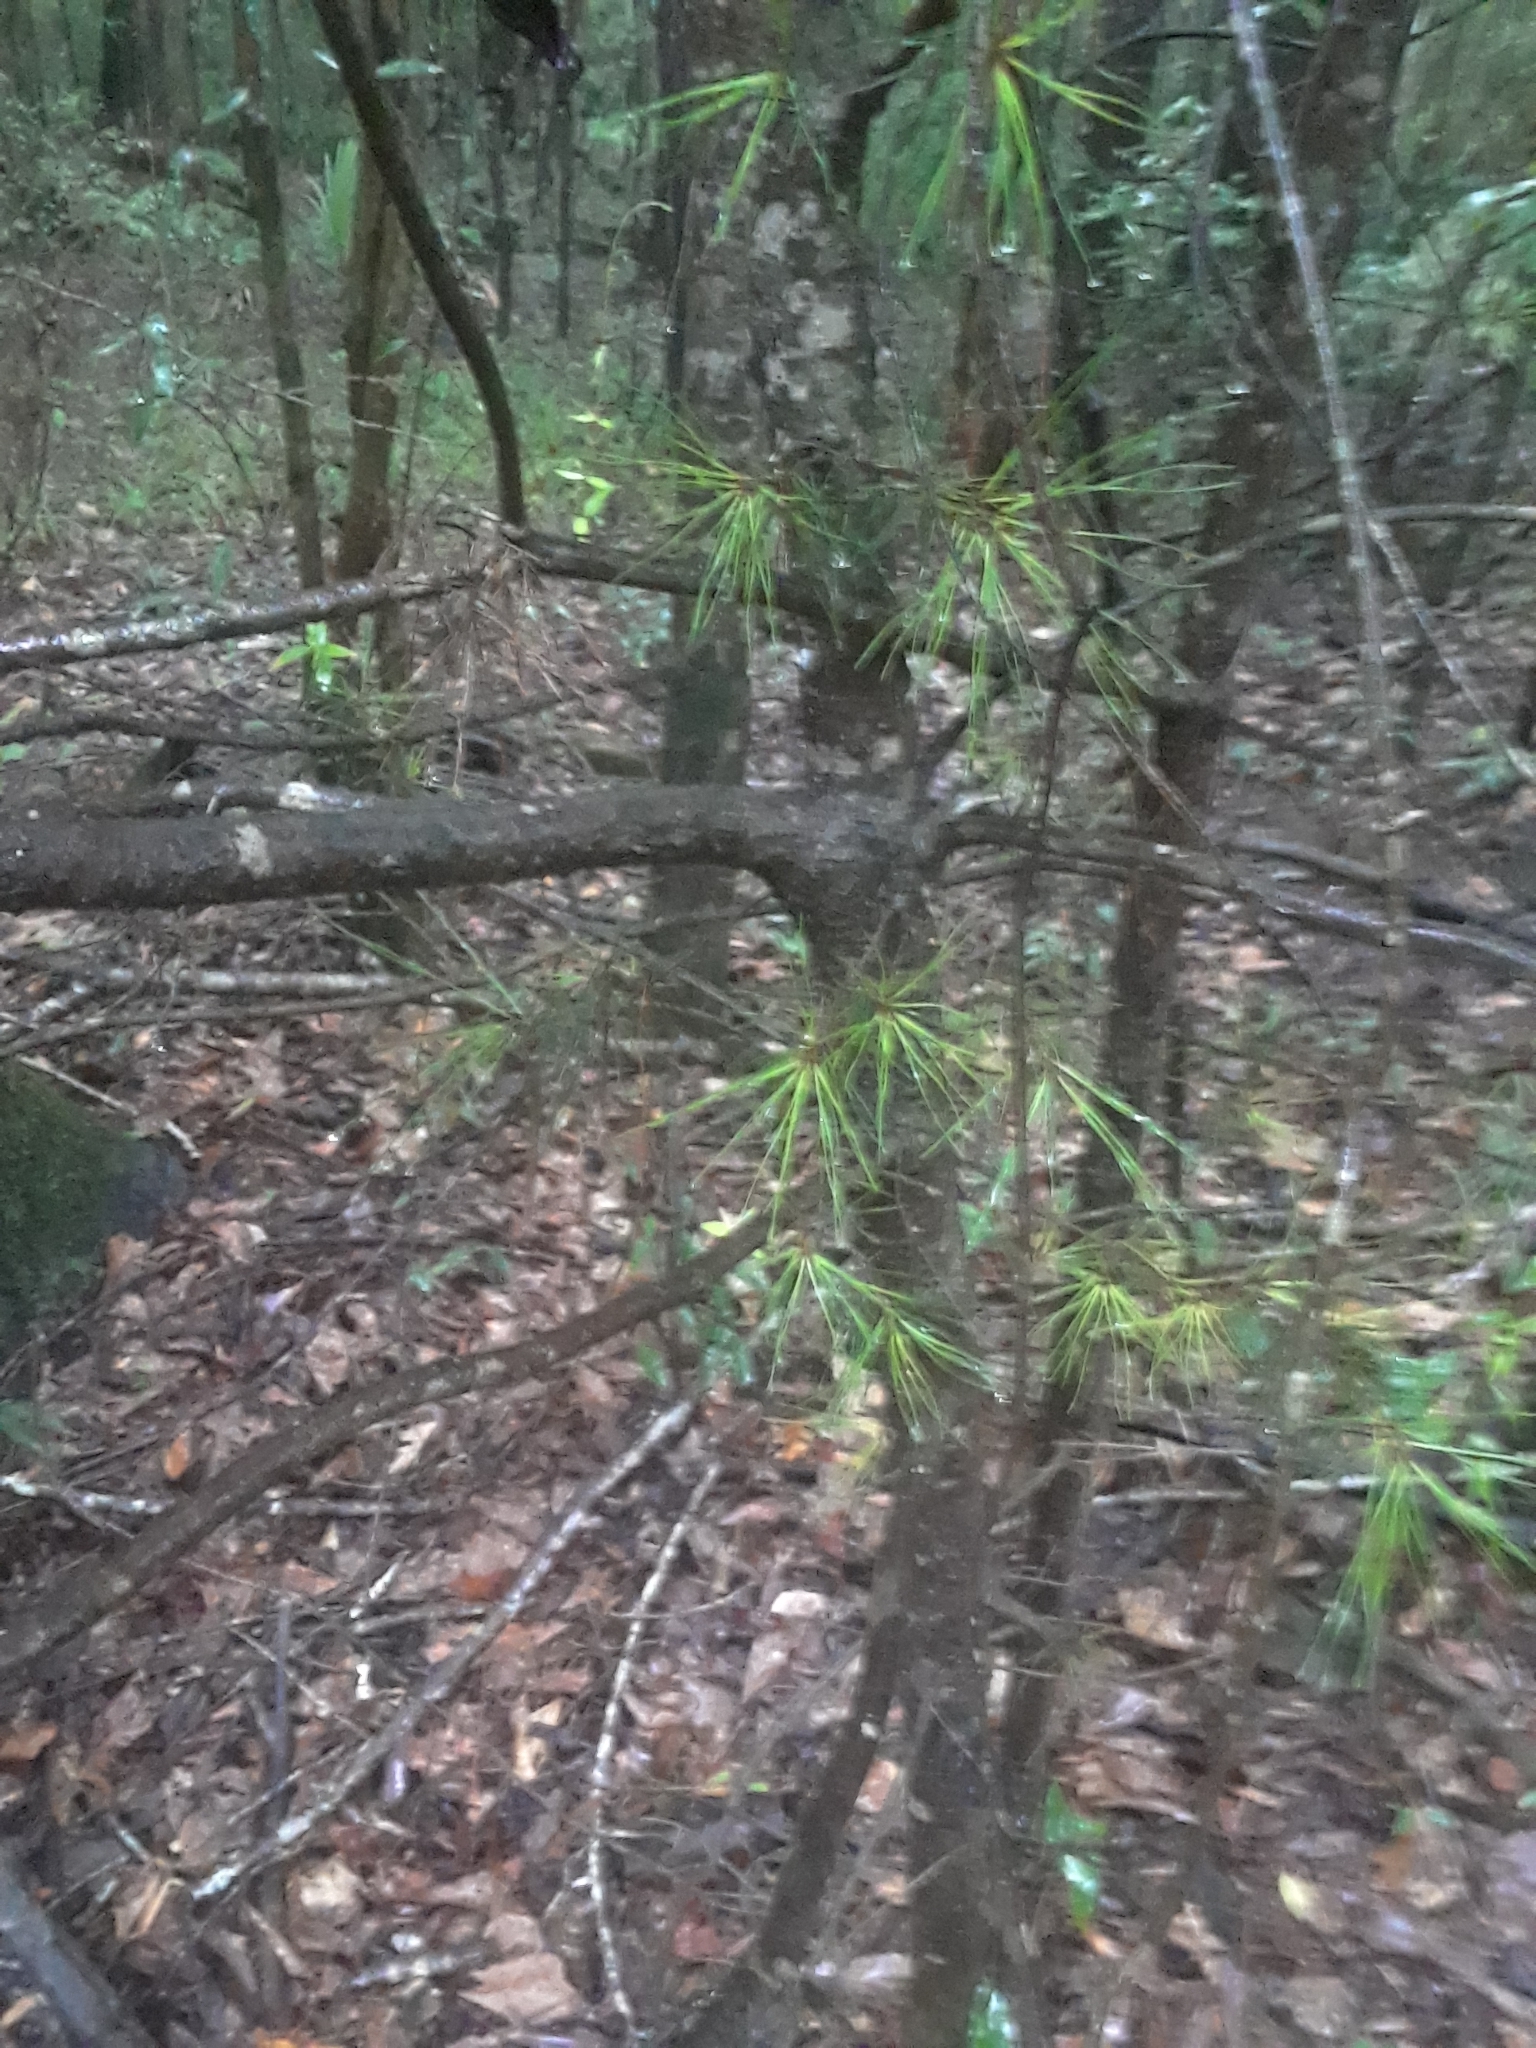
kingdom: Plantae
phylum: Tracheophyta
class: Pinopsida
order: Pinales
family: Pinaceae
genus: Pinus
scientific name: Pinus glabra
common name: Spruce pine
